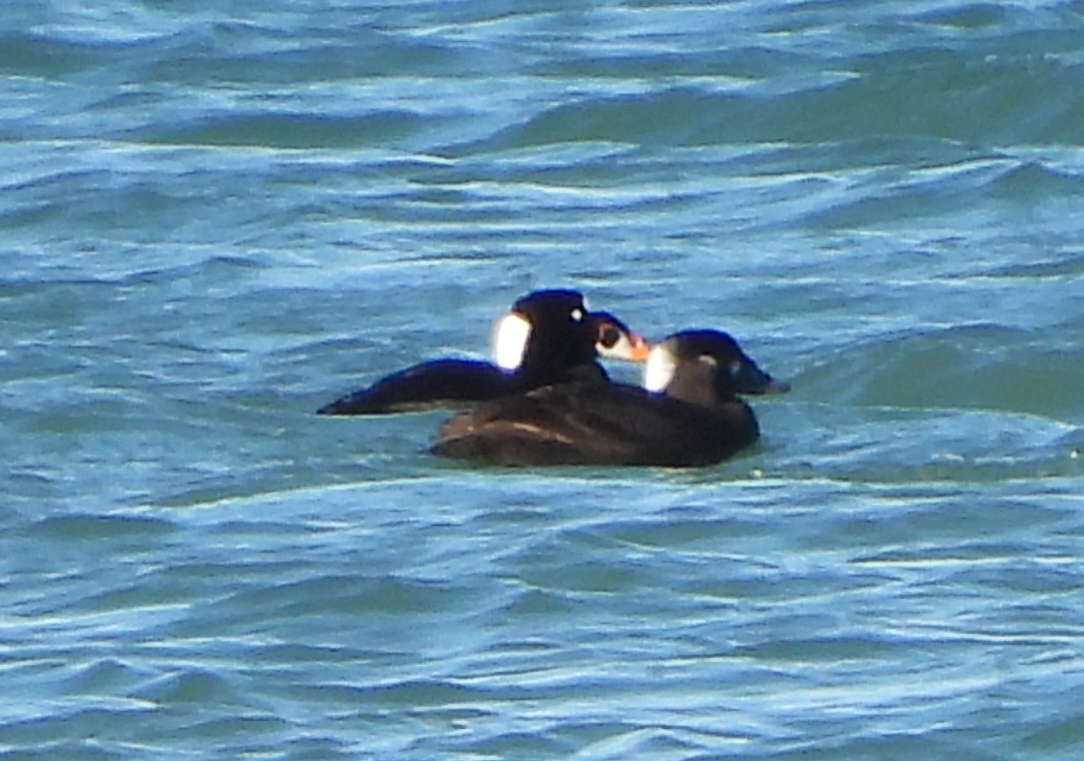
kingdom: Animalia
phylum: Chordata
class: Aves
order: Anseriformes
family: Anatidae
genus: Melanitta
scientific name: Melanitta perspicillata
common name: Surf scoter
